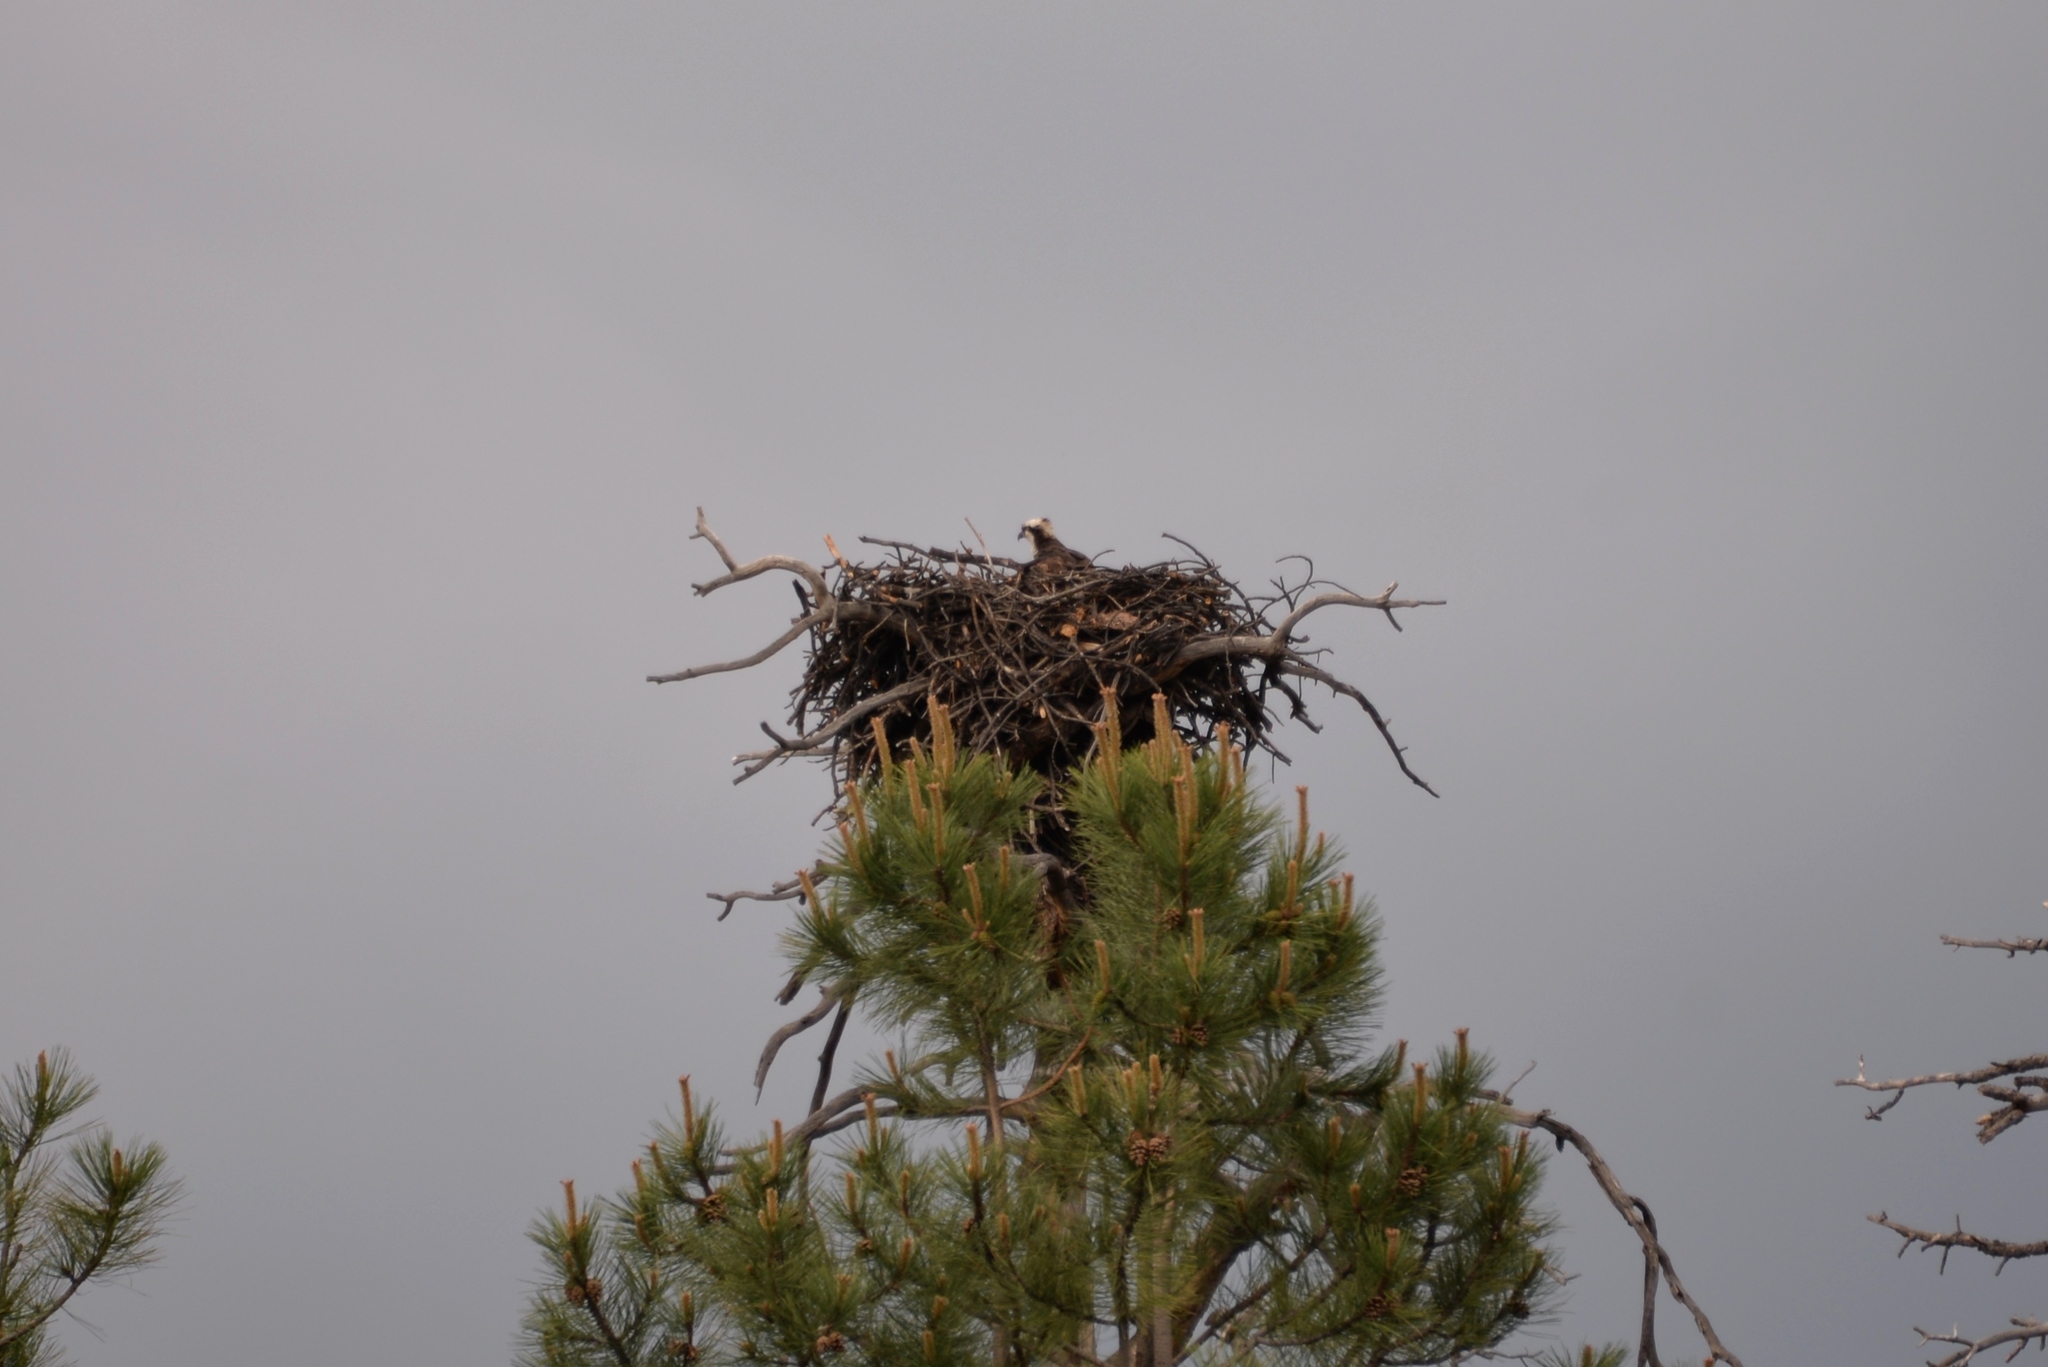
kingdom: Animalia
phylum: Chordata
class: Aves
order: Accipitriformes
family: Pandionidae
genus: Pandion
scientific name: Pandion haliaetus
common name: Osprey
